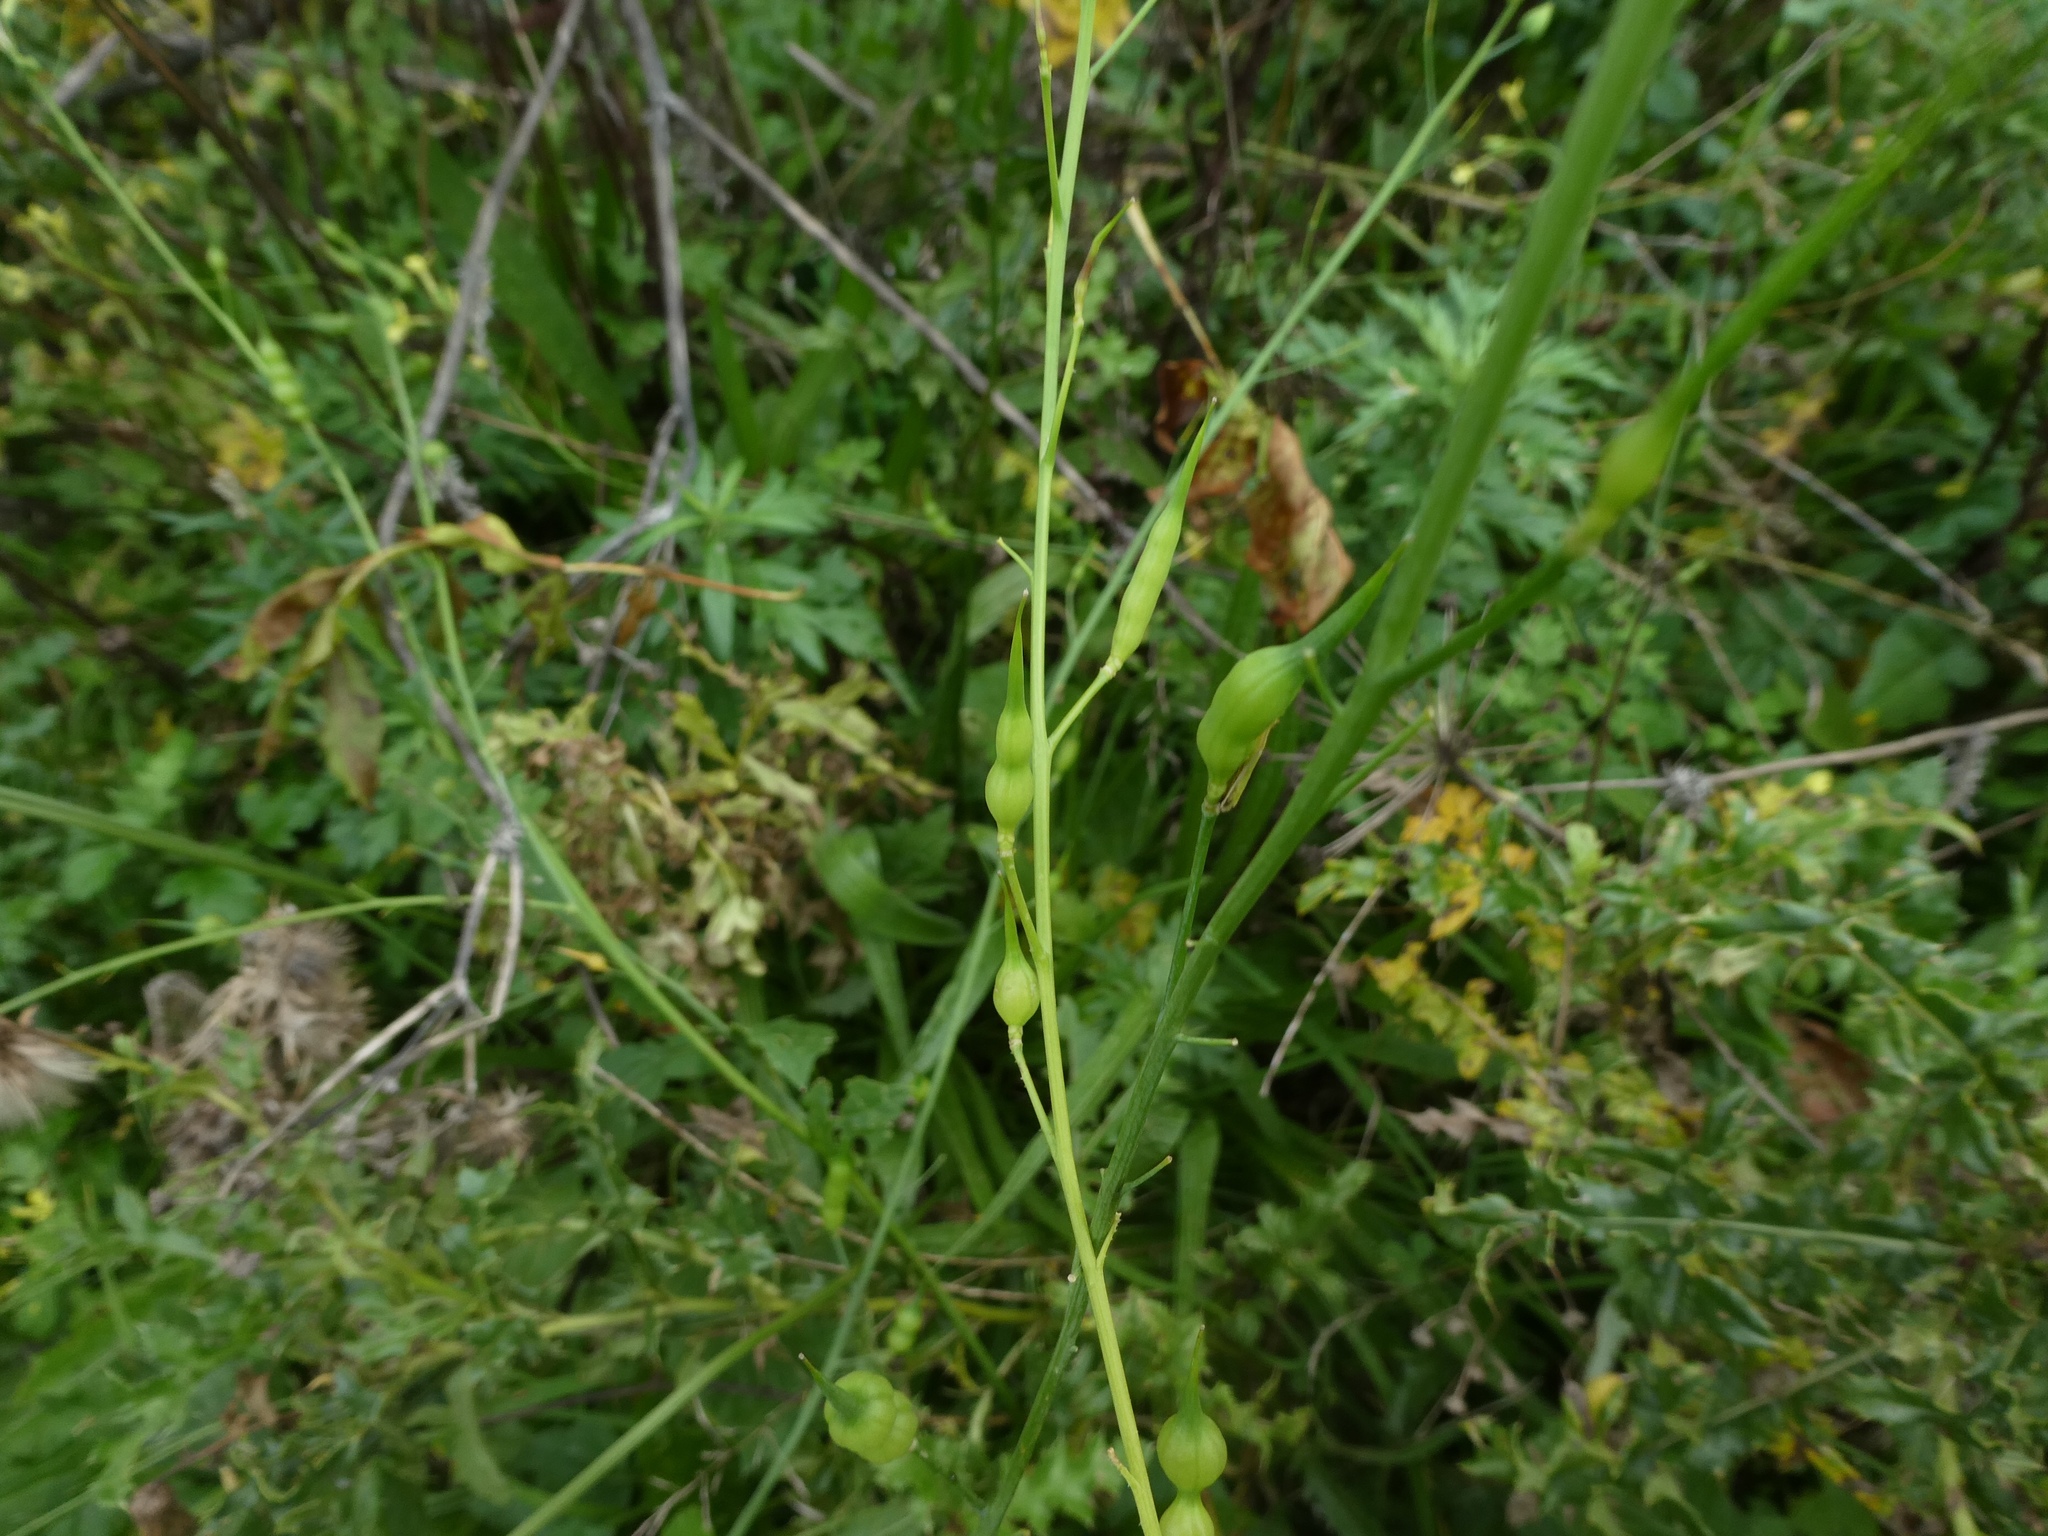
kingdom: Plantae
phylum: Tracheophyta
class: Magnoliopsida
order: Brassicales
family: Brassicaceae
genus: Raphanus
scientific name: Raphanus raphanistrum
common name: Wild radish
